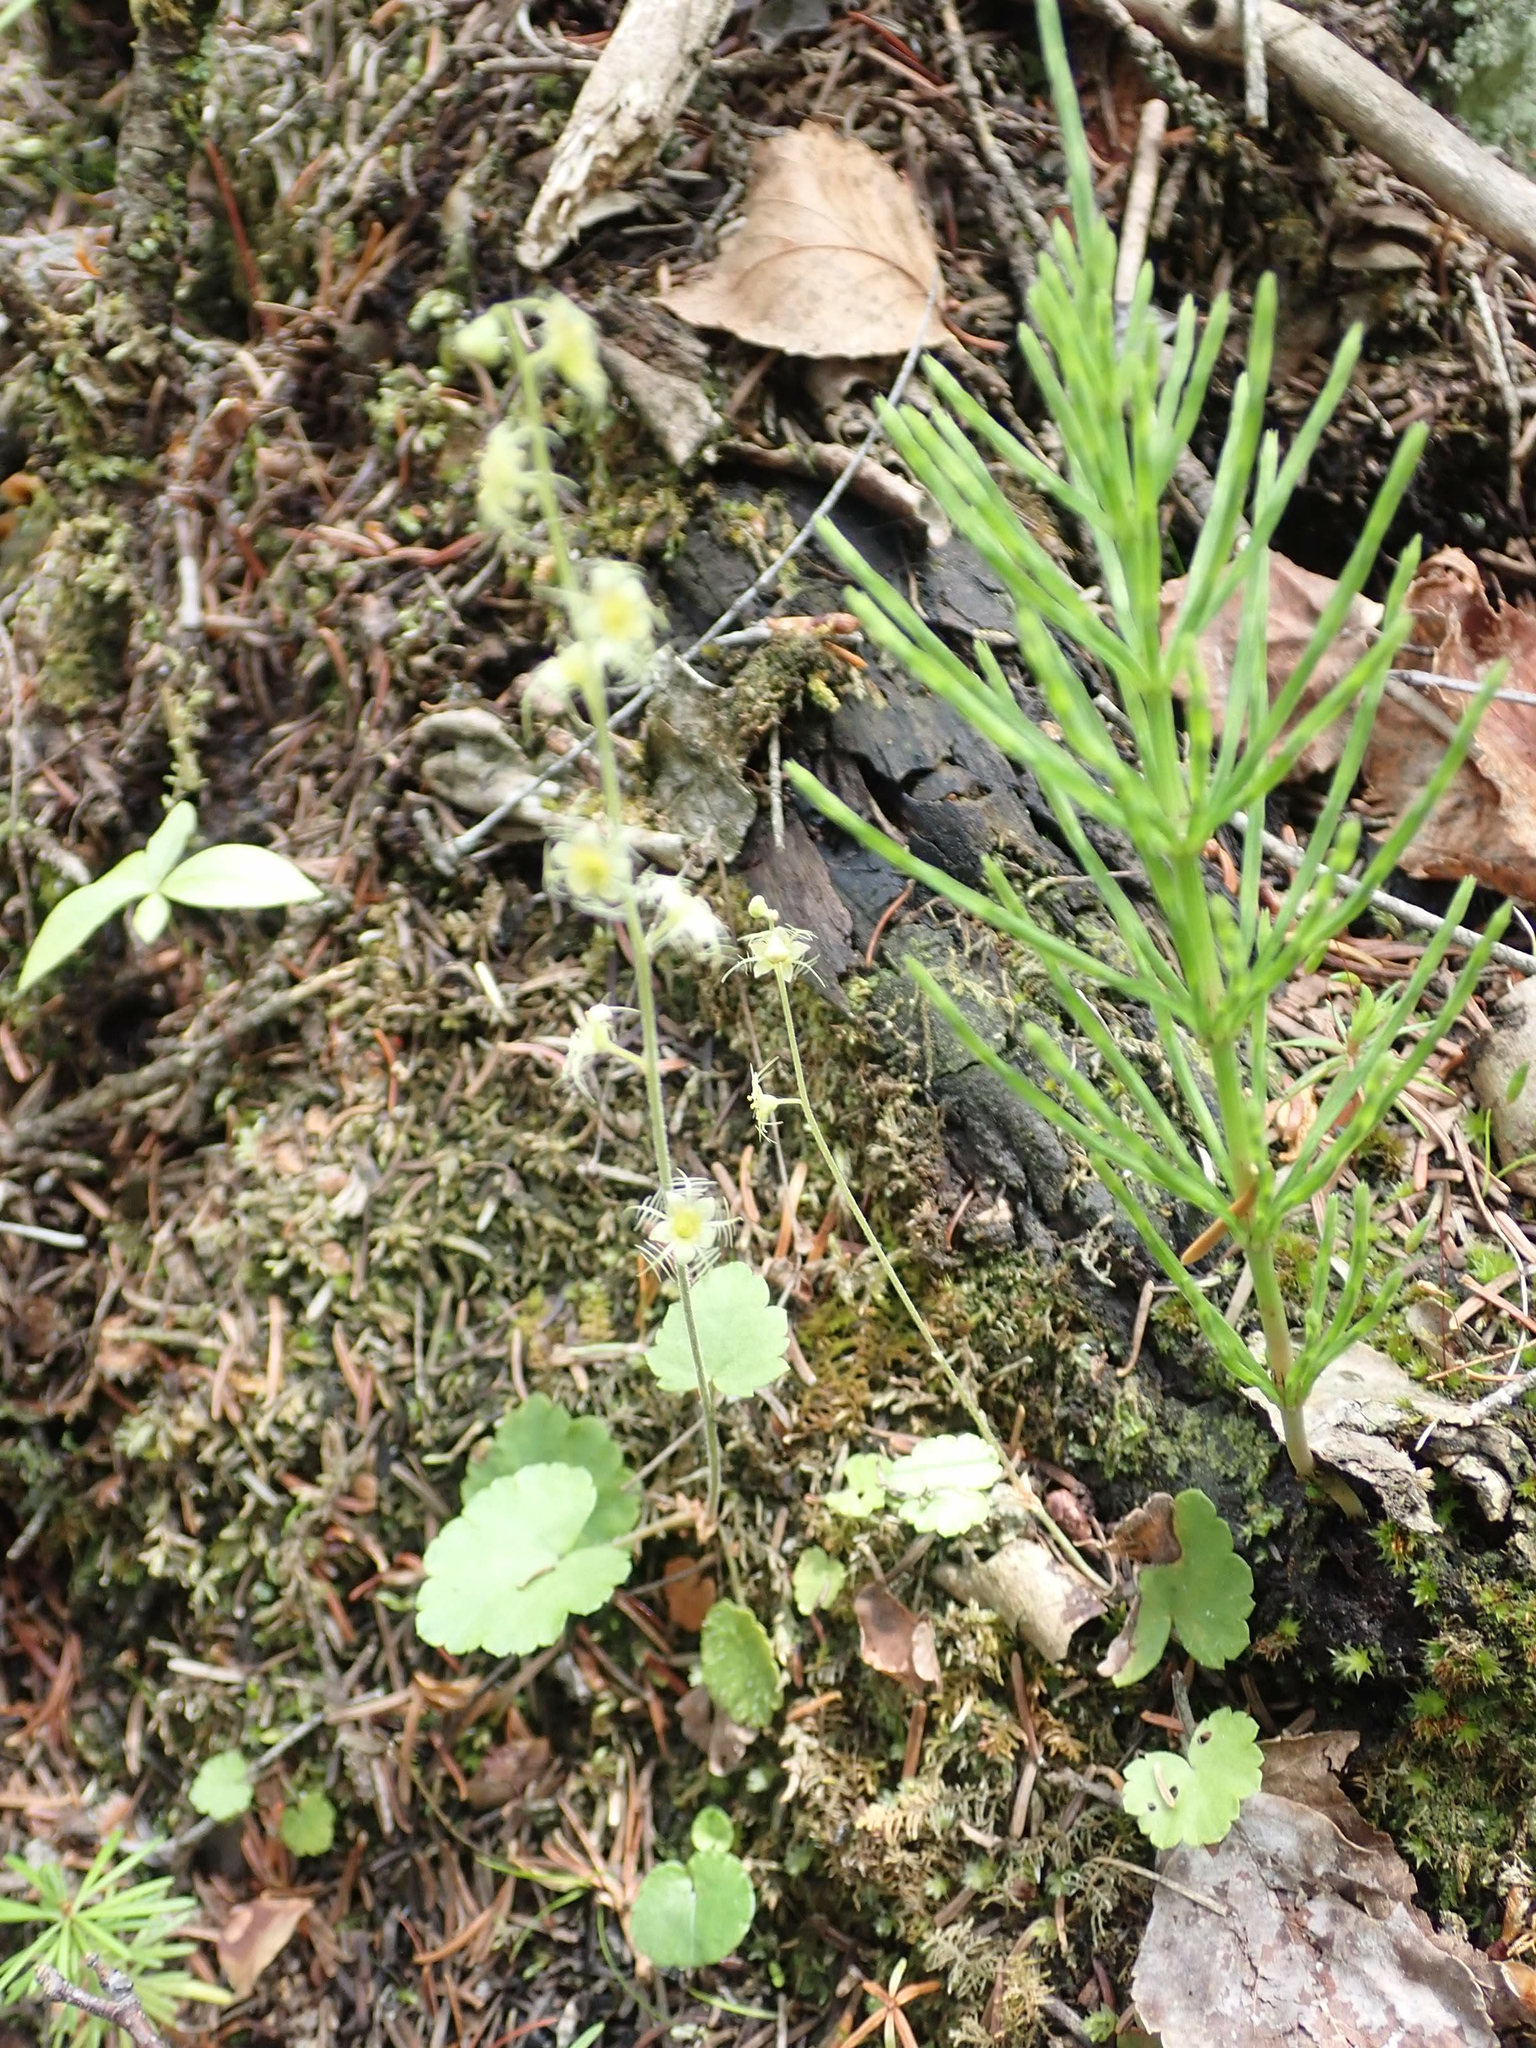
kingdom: Plantae
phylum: Tracheophyta
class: Magnoliopsida
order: Saxifragales
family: Saxifragaceae
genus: Mitella
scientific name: Mitella nuda
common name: Bare-stemmed bishop's-cap
